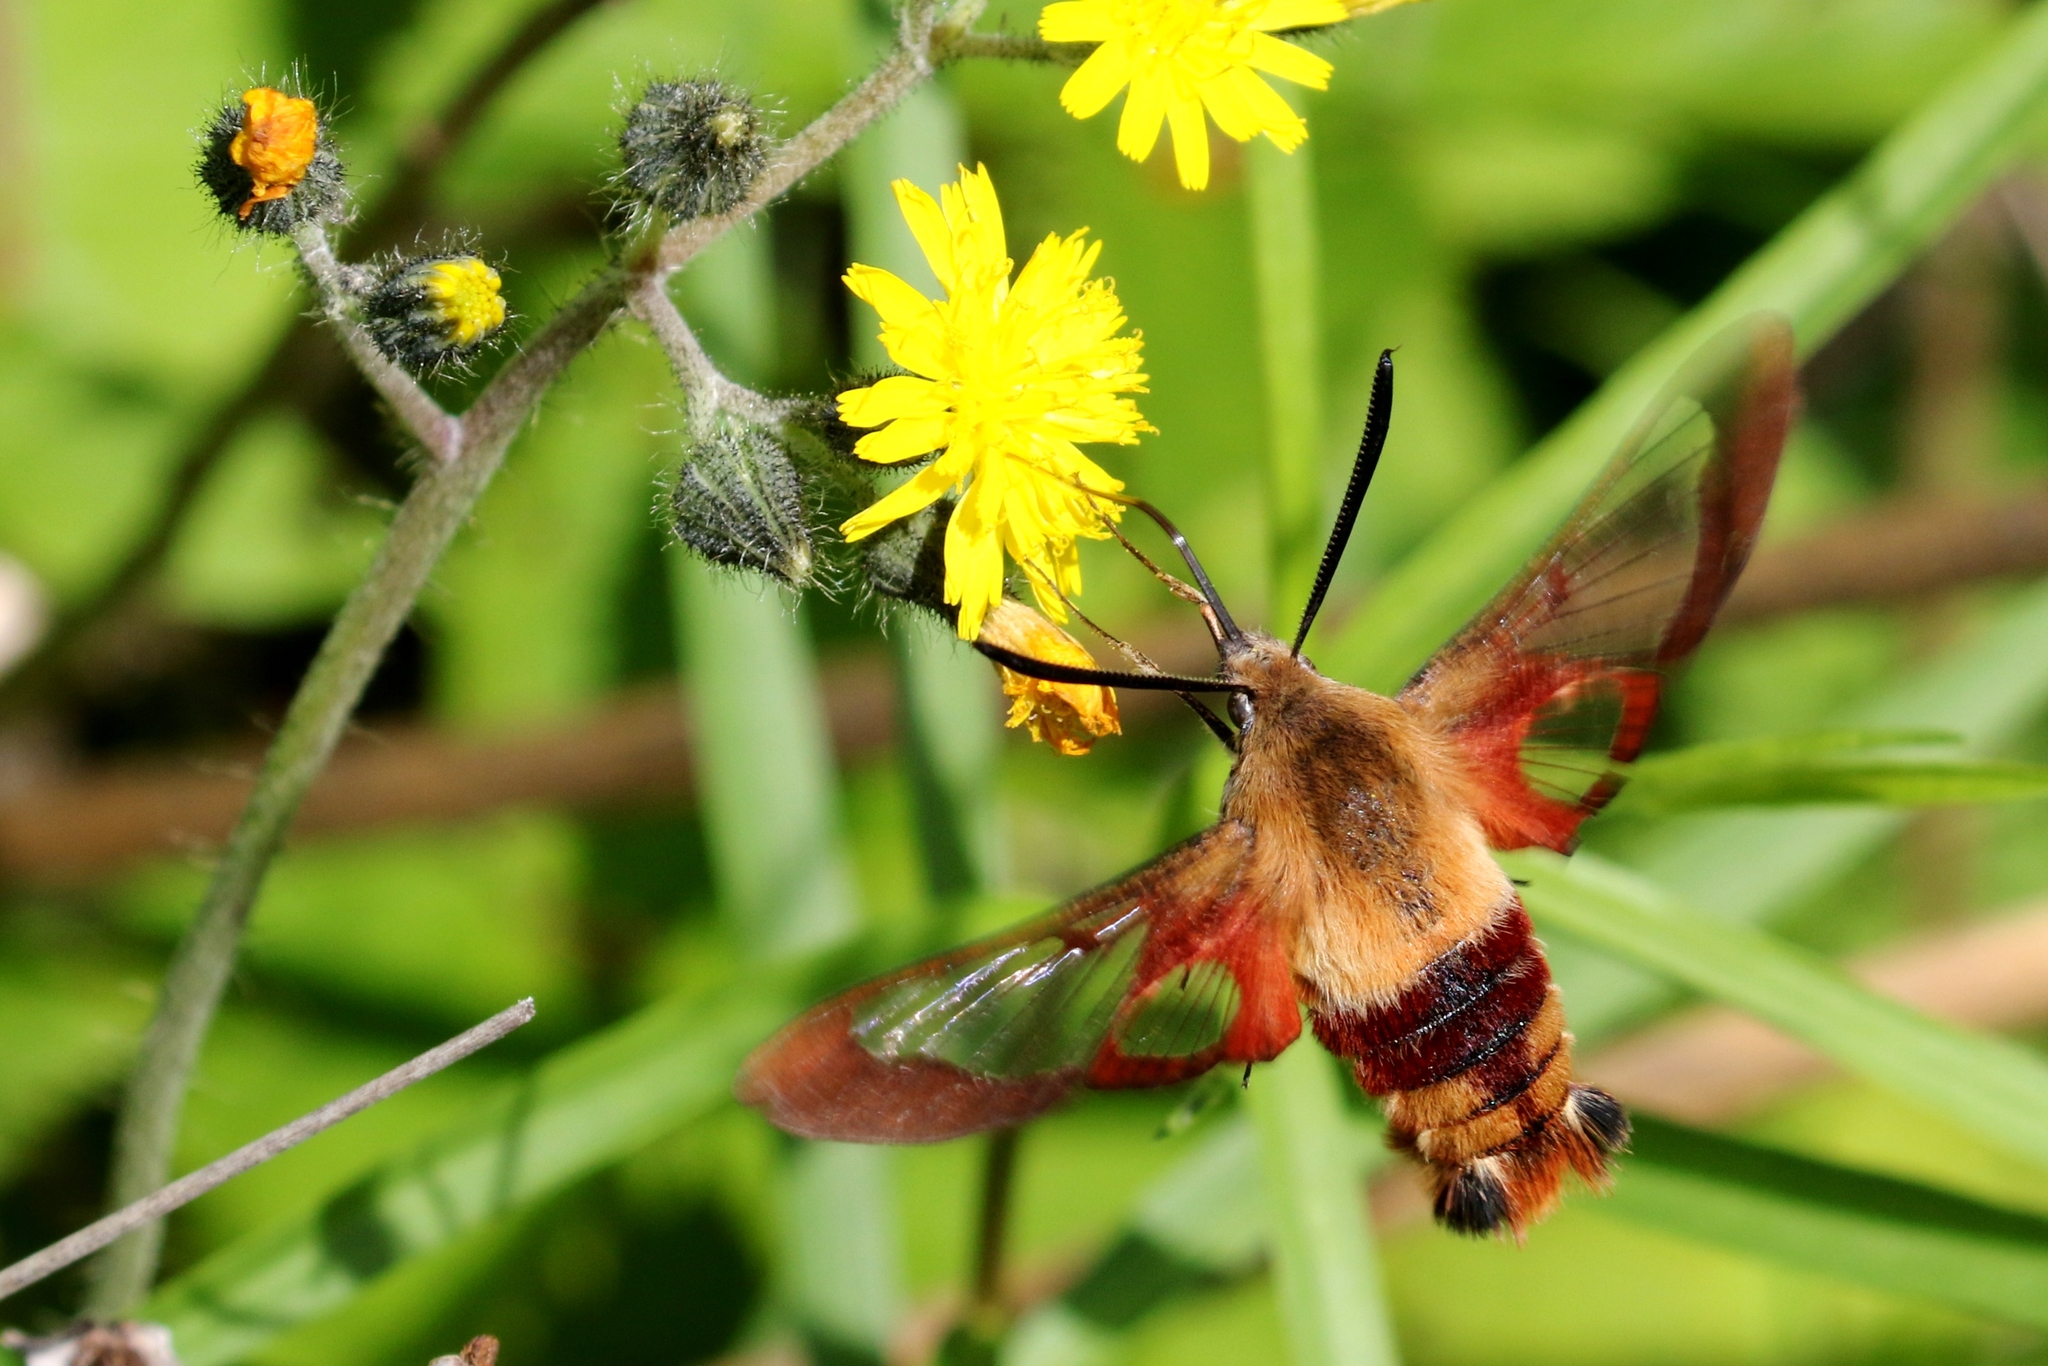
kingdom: Animalia
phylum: Arthropoda
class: Insecta
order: Lepidoptera
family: Sphingidae
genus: Hemaris
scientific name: Hemaris thysbe
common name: Common clear-wing
